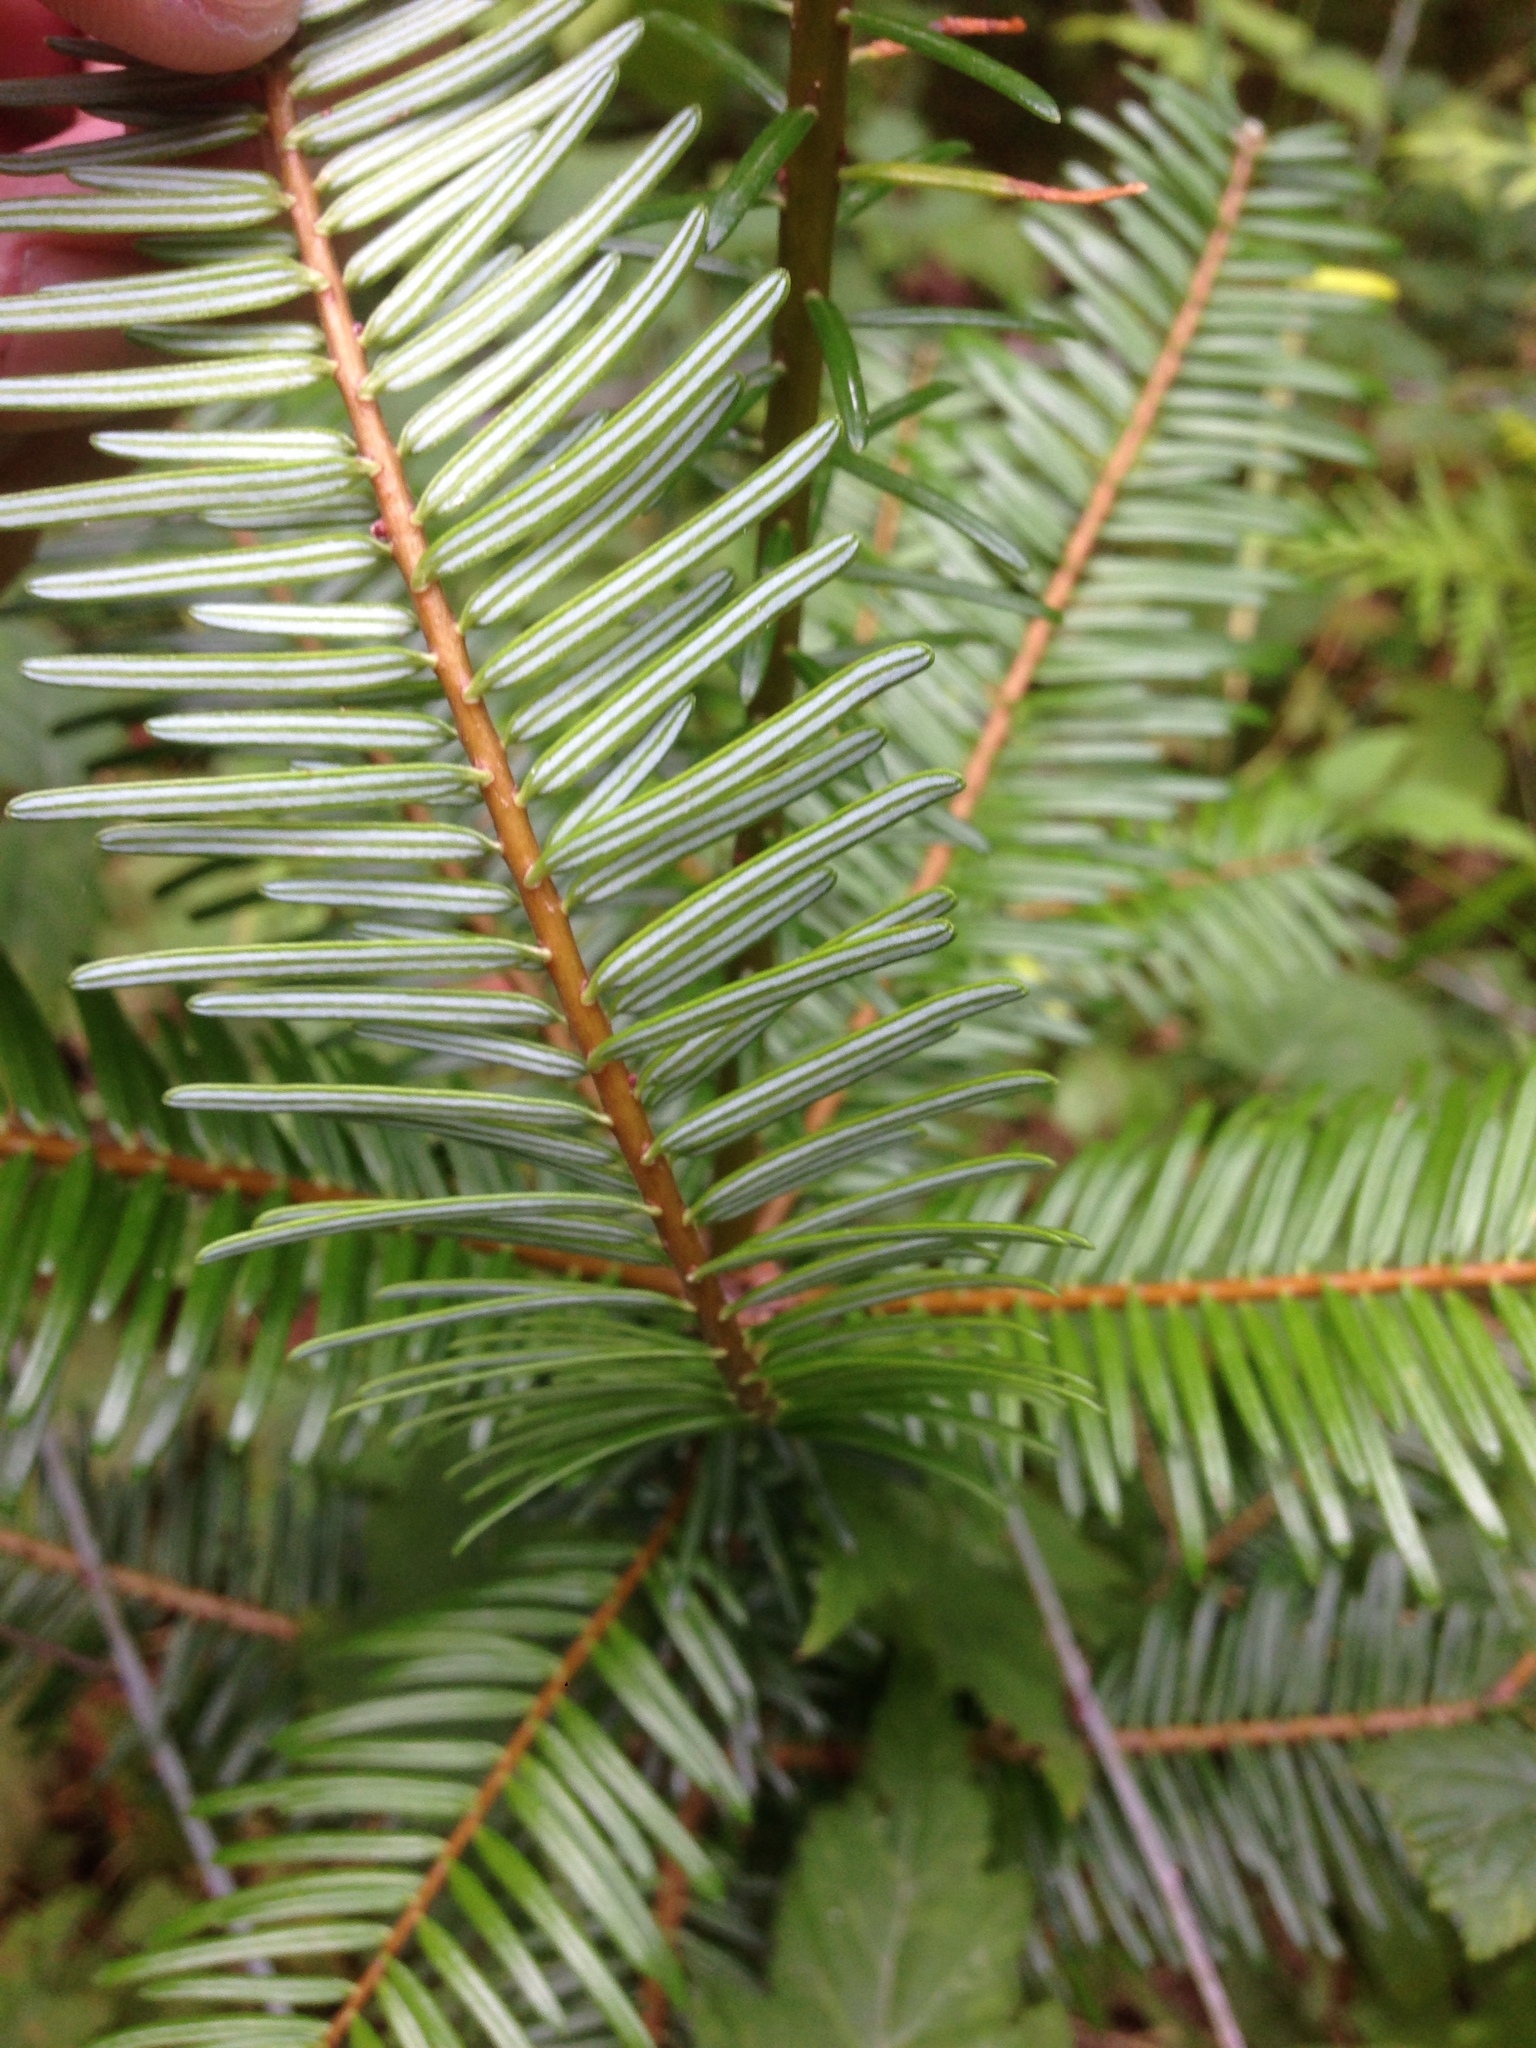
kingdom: Plantae
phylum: Tracheophyta
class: Pinopsida
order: Pinales
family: Pinaceae
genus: Abies
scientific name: Abies grandis
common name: Giant fir
